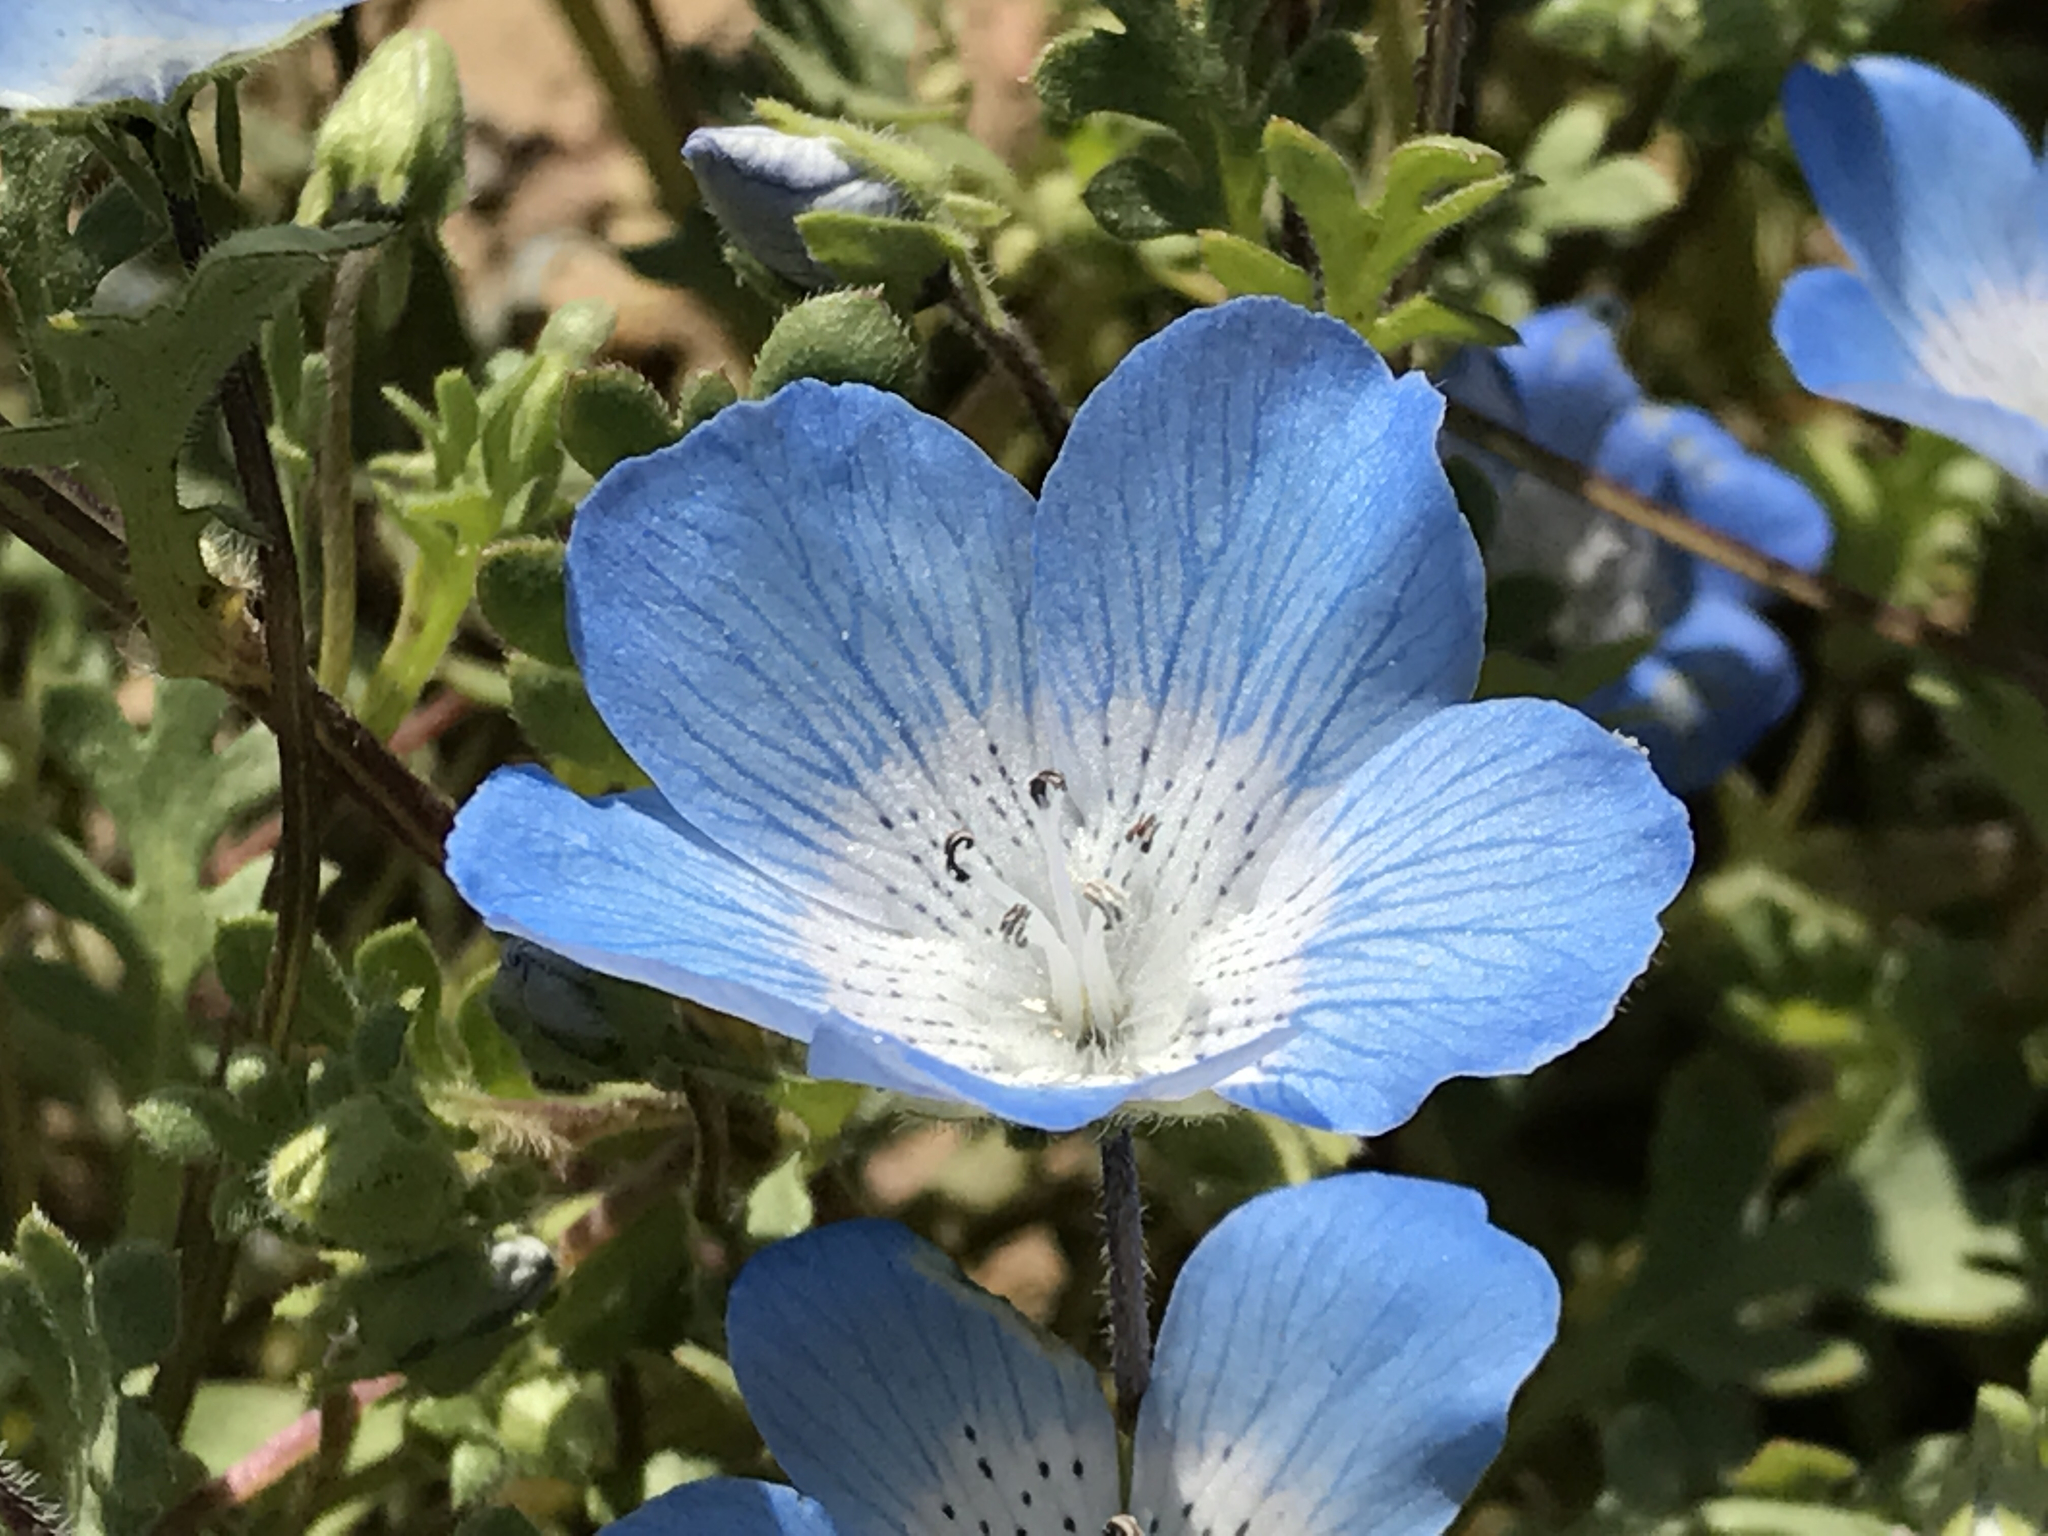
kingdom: Plantae
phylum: Tracheophyta
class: Magnoliopsida
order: Boraginales
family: Hydrophyllaceae
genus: Nemophila
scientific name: Nemophila menziesii
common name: Baby's-blue-eyes
